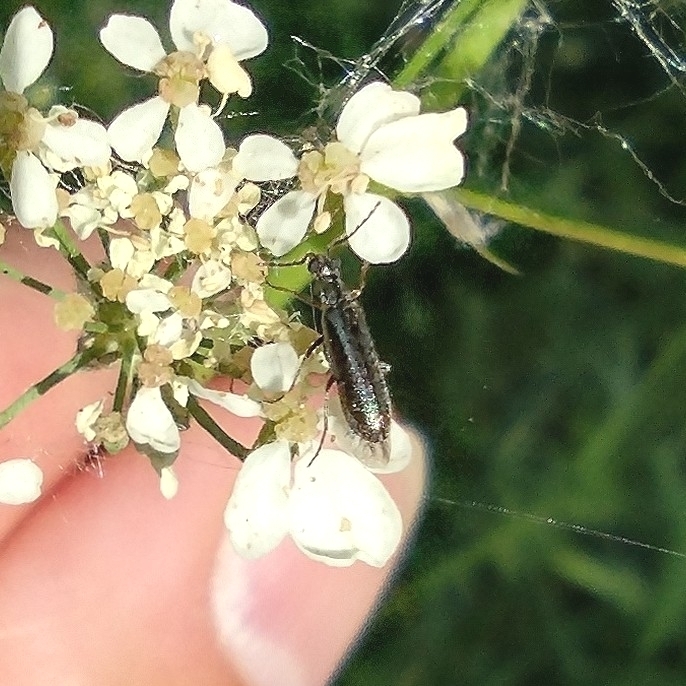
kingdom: Animalia
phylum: Arthropoda
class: Insecta
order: Coleoptera
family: Melyridae
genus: Dasytes
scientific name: Dasytes plumbeus
